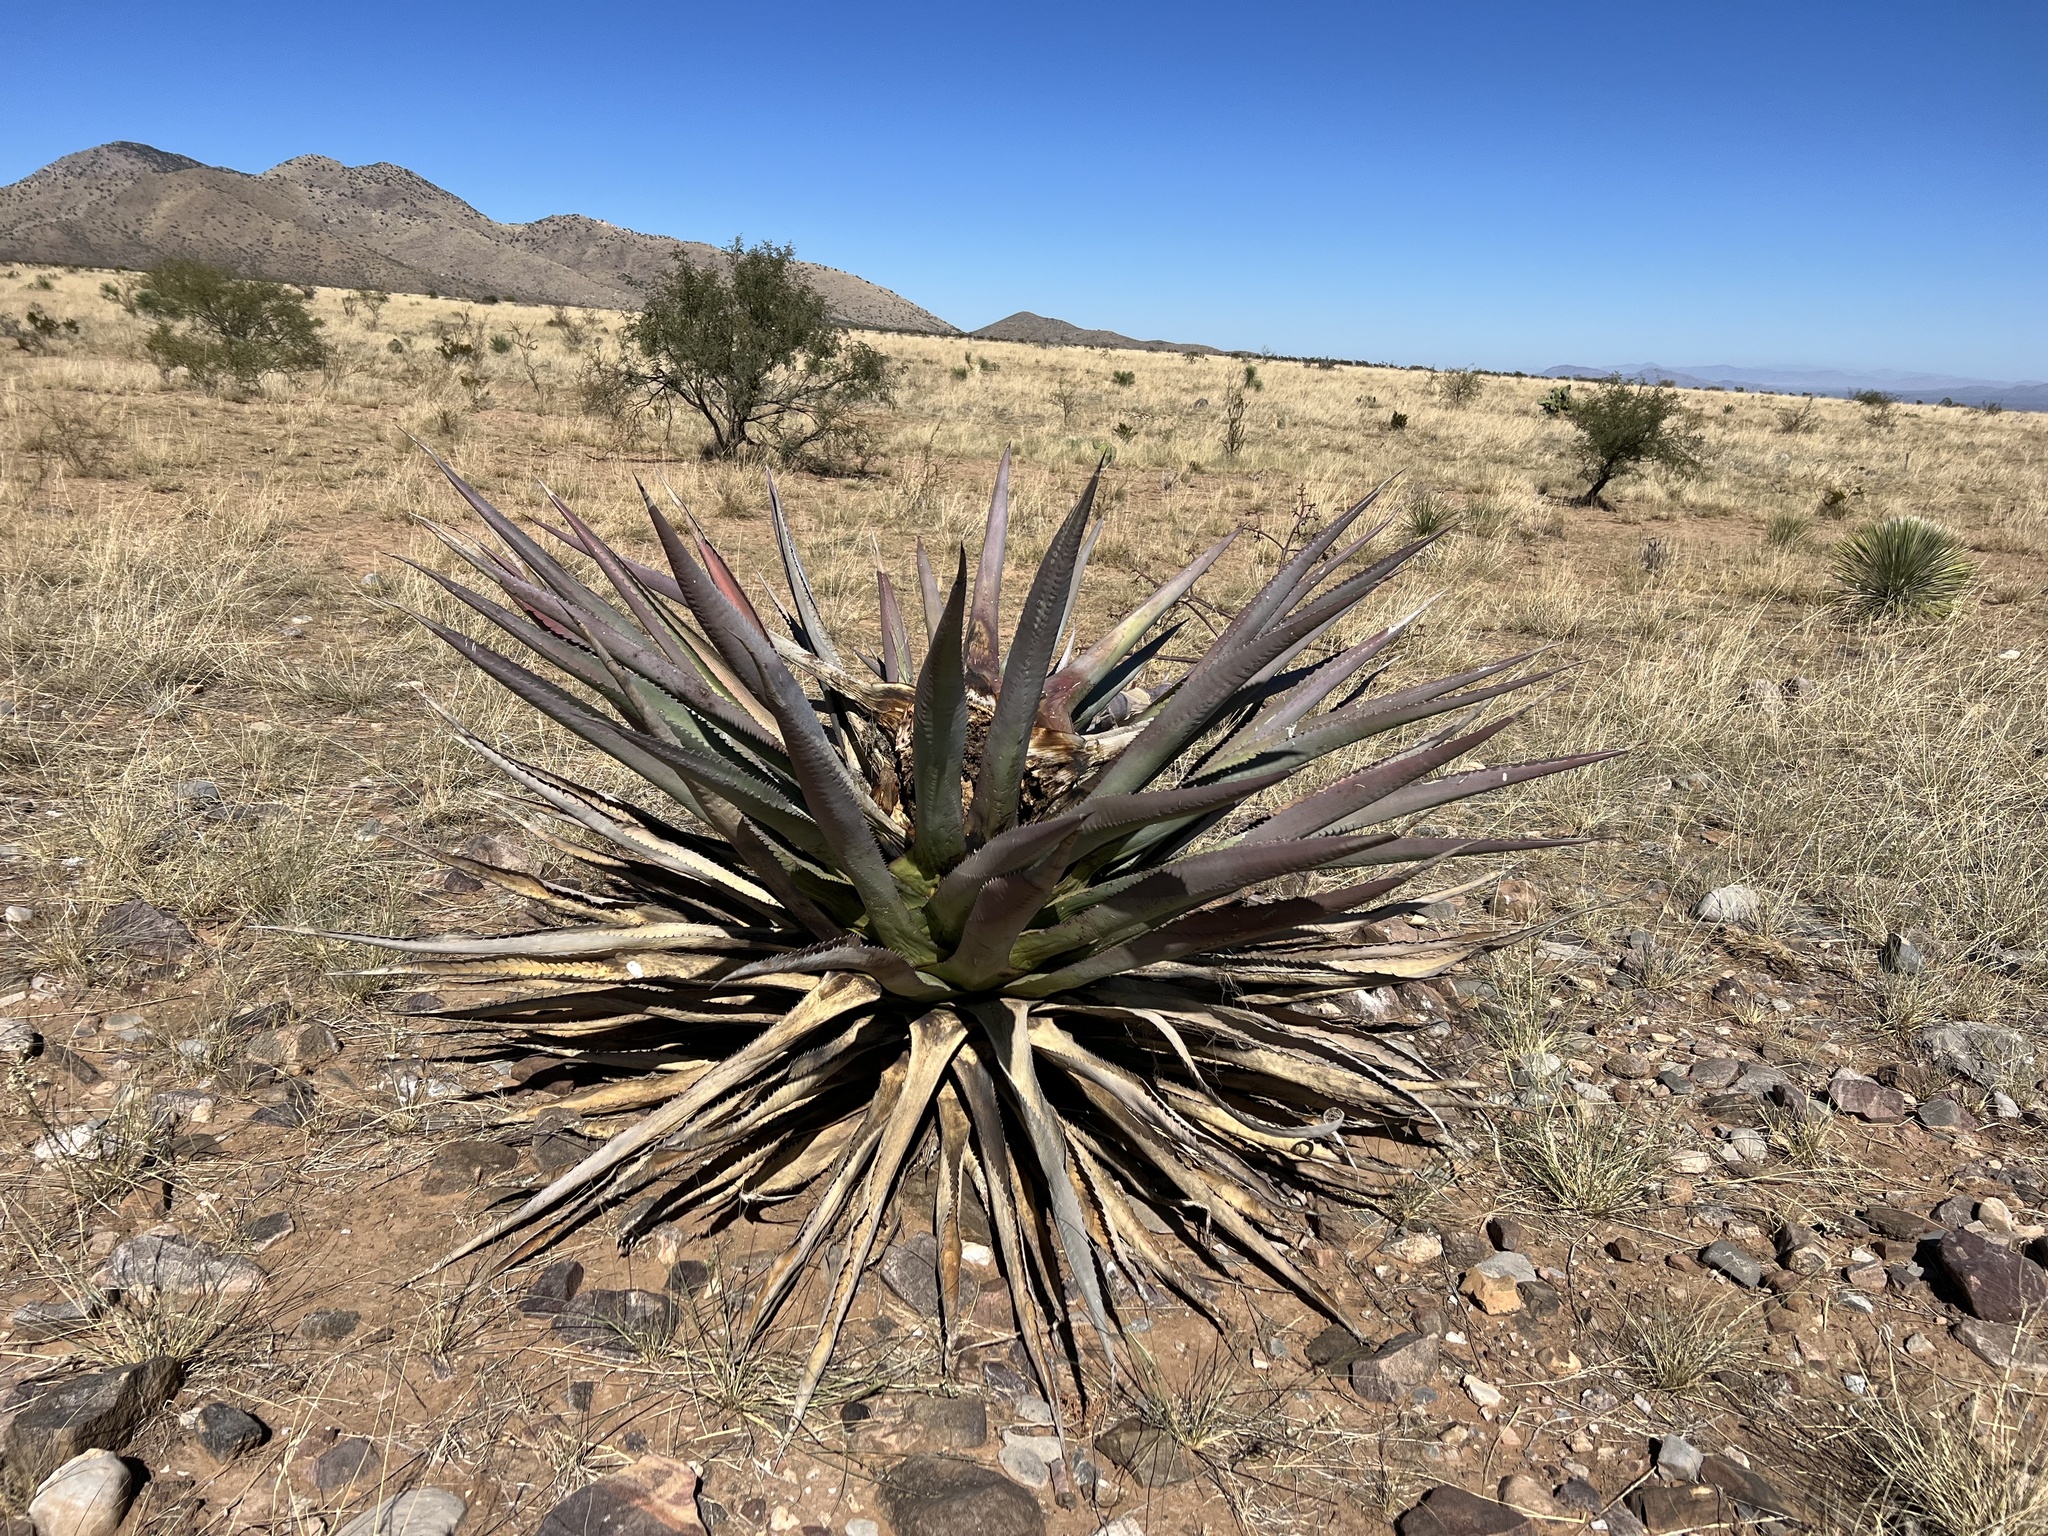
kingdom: Plantae
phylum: Tracheophyta
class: Liliopsida
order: Asparagales
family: Asparagaceae
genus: Agave
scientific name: Agave palmeri
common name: Palmer agave
